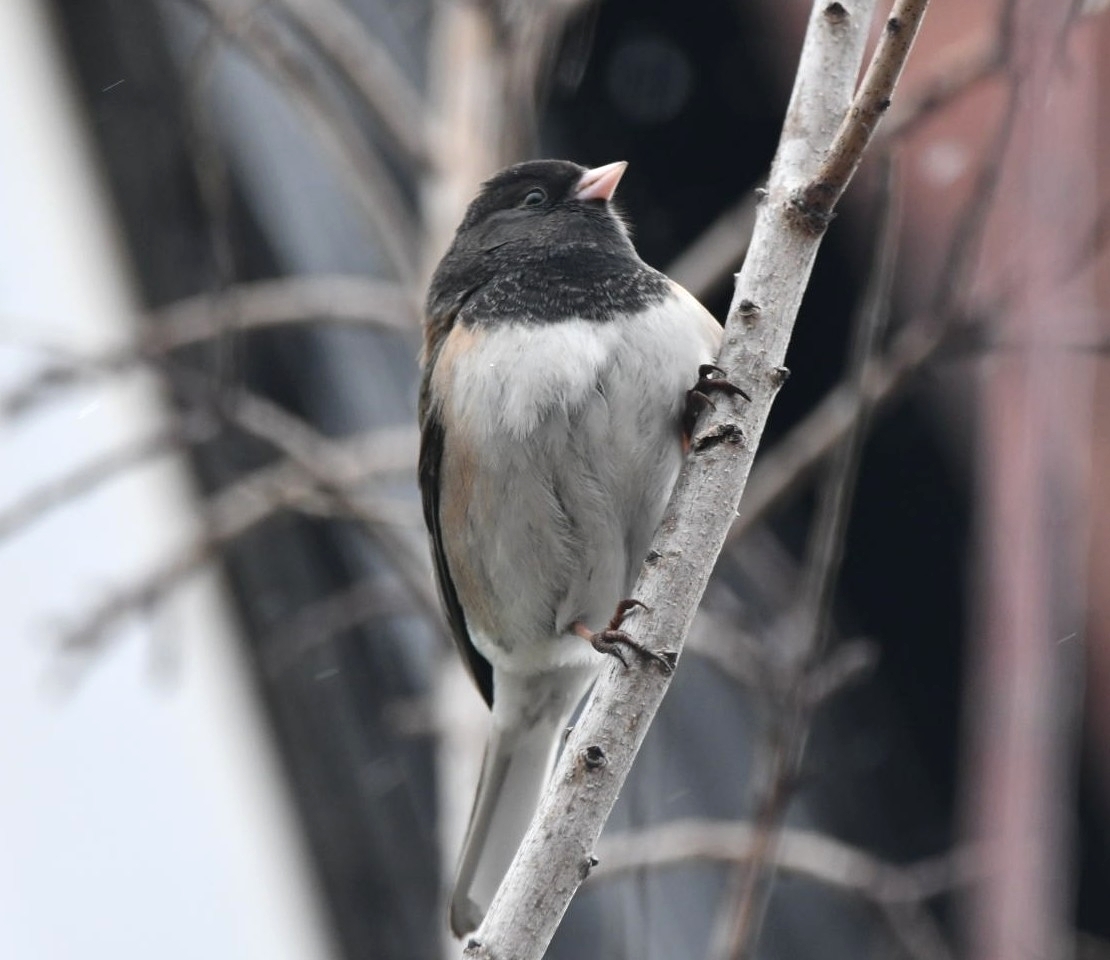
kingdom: Animalia
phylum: Chordata
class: Aves
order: Passeriformes
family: Passerellidae
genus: Junco
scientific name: Junco hyemalis
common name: Dark-eyed junco
